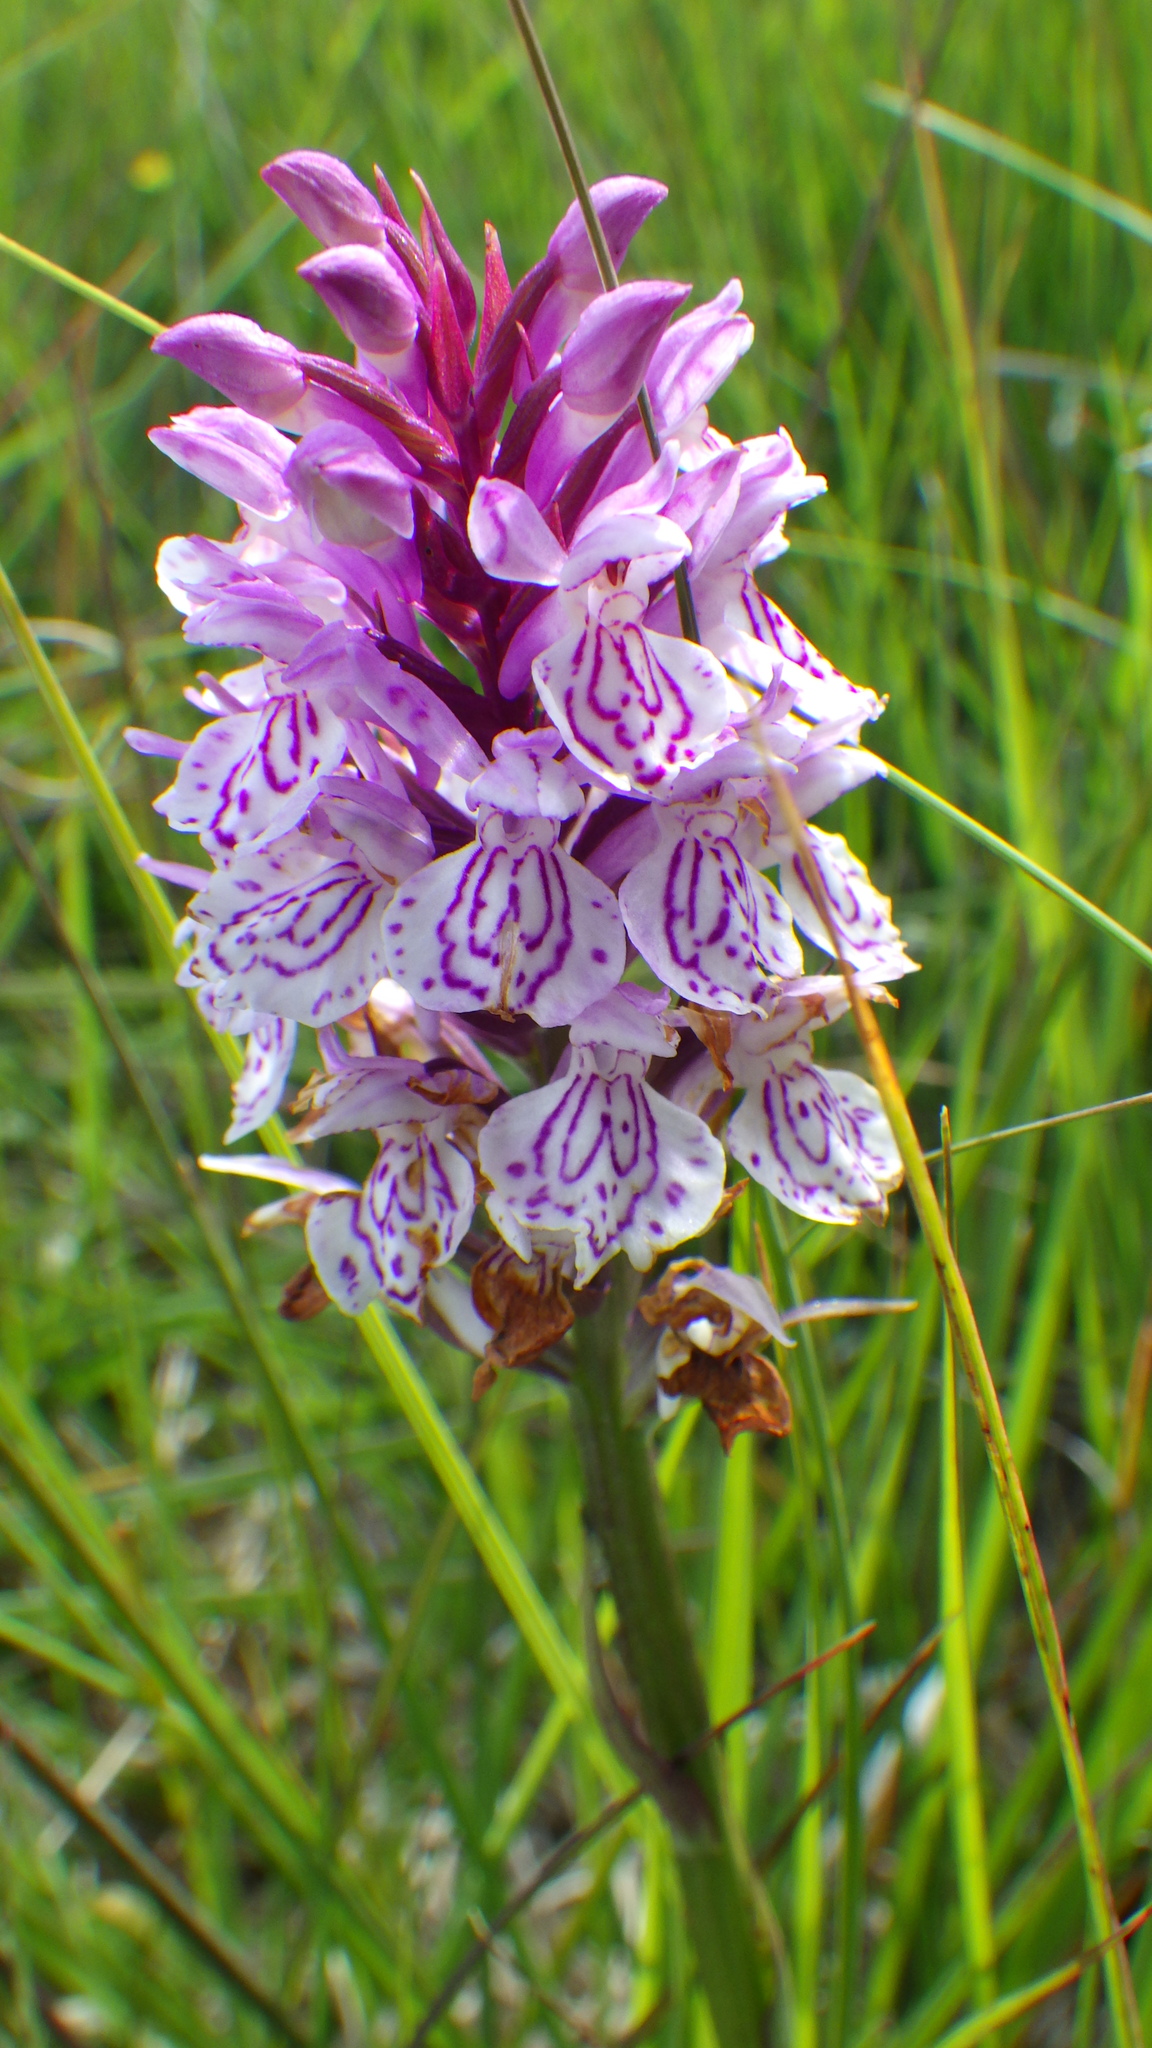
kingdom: Plantae
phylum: Tracheophyta
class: Liliopsida
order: Asparagales
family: Orchidaceae
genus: Dactylorhiza
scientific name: Dactylorhiza maculata
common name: Heath spotted-orchid
